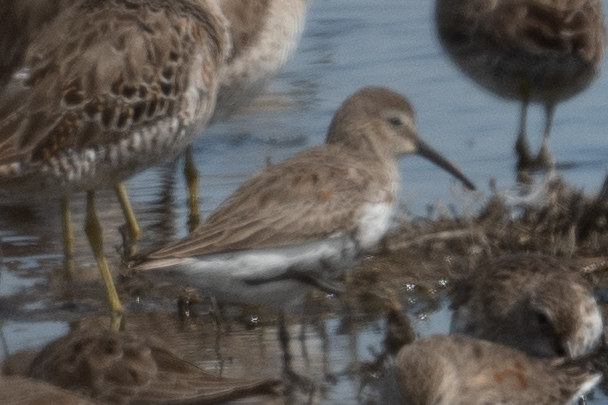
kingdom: Animalia
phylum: Chordata
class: Aves
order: Charadriiformes
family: Scolopacidae
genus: Calidris
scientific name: Calidris alpina
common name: Dunlin
